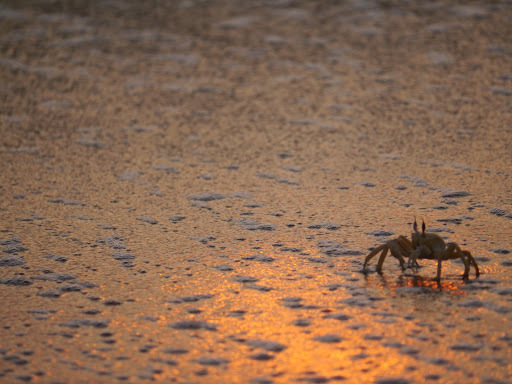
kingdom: Animalia
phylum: Arthropoda
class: Malacostraca
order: Decapoda
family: Ocypodidae
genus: Ocypode
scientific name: Ocypode cursor
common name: Tufted ghost crab
